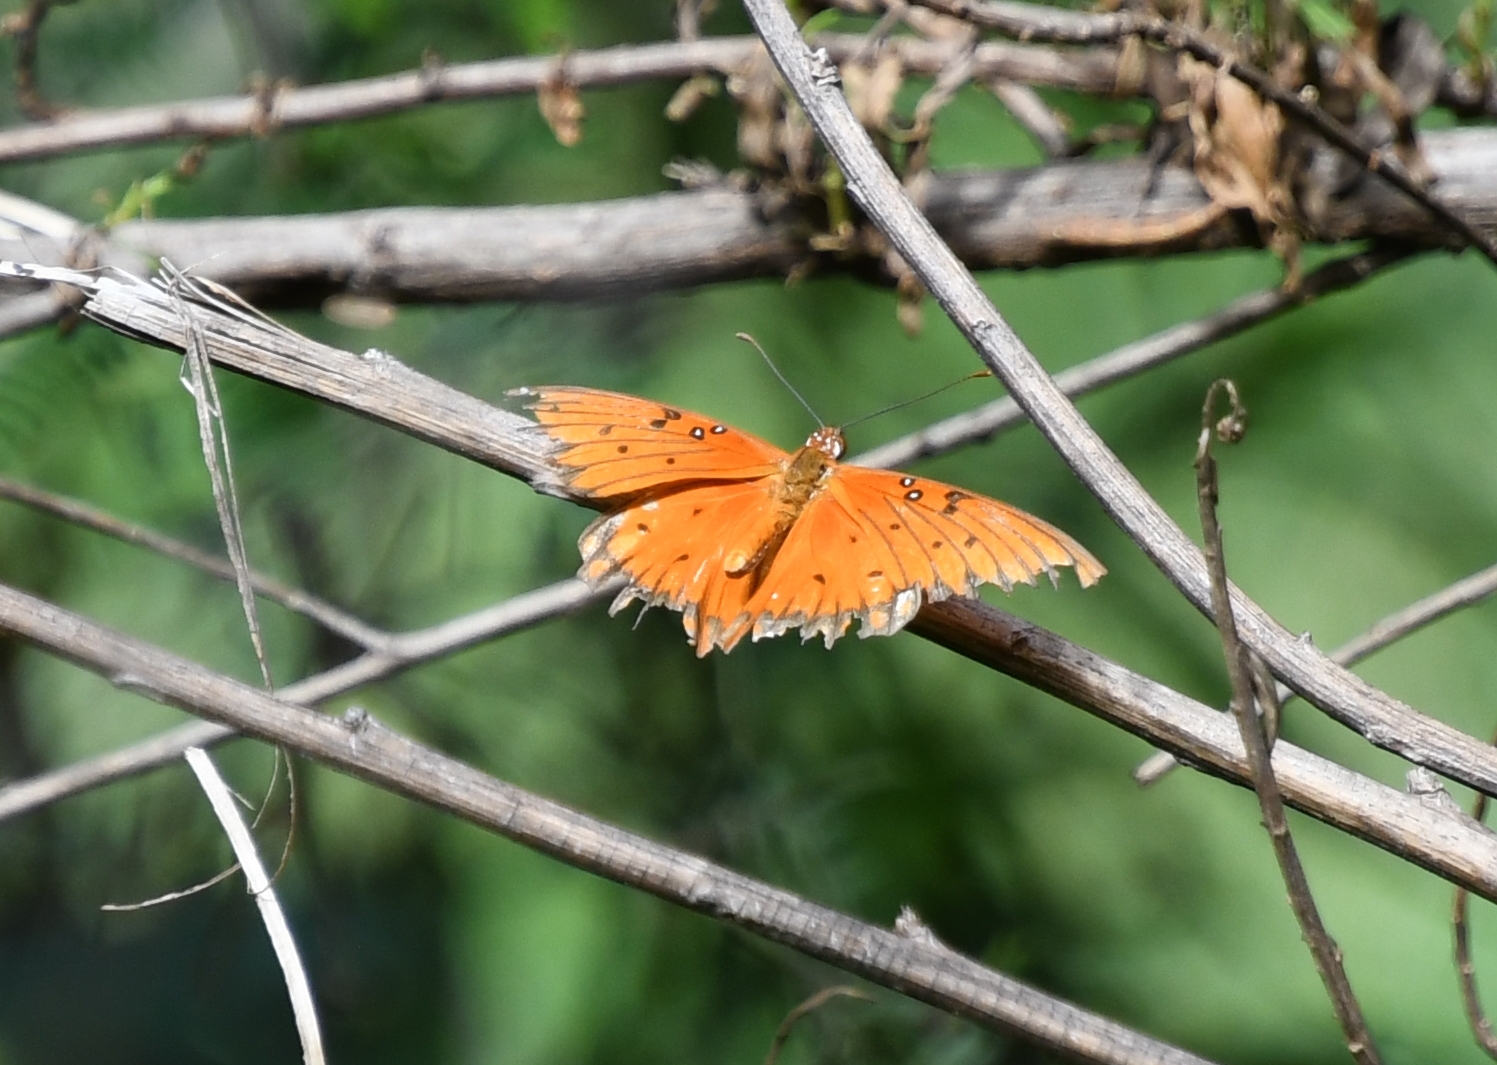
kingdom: Animalia
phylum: Arthropoda
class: Insecta
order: Lepidoptera
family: Nymphalidae
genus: Dione
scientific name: Dione vanillae
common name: Gulf fritillary
